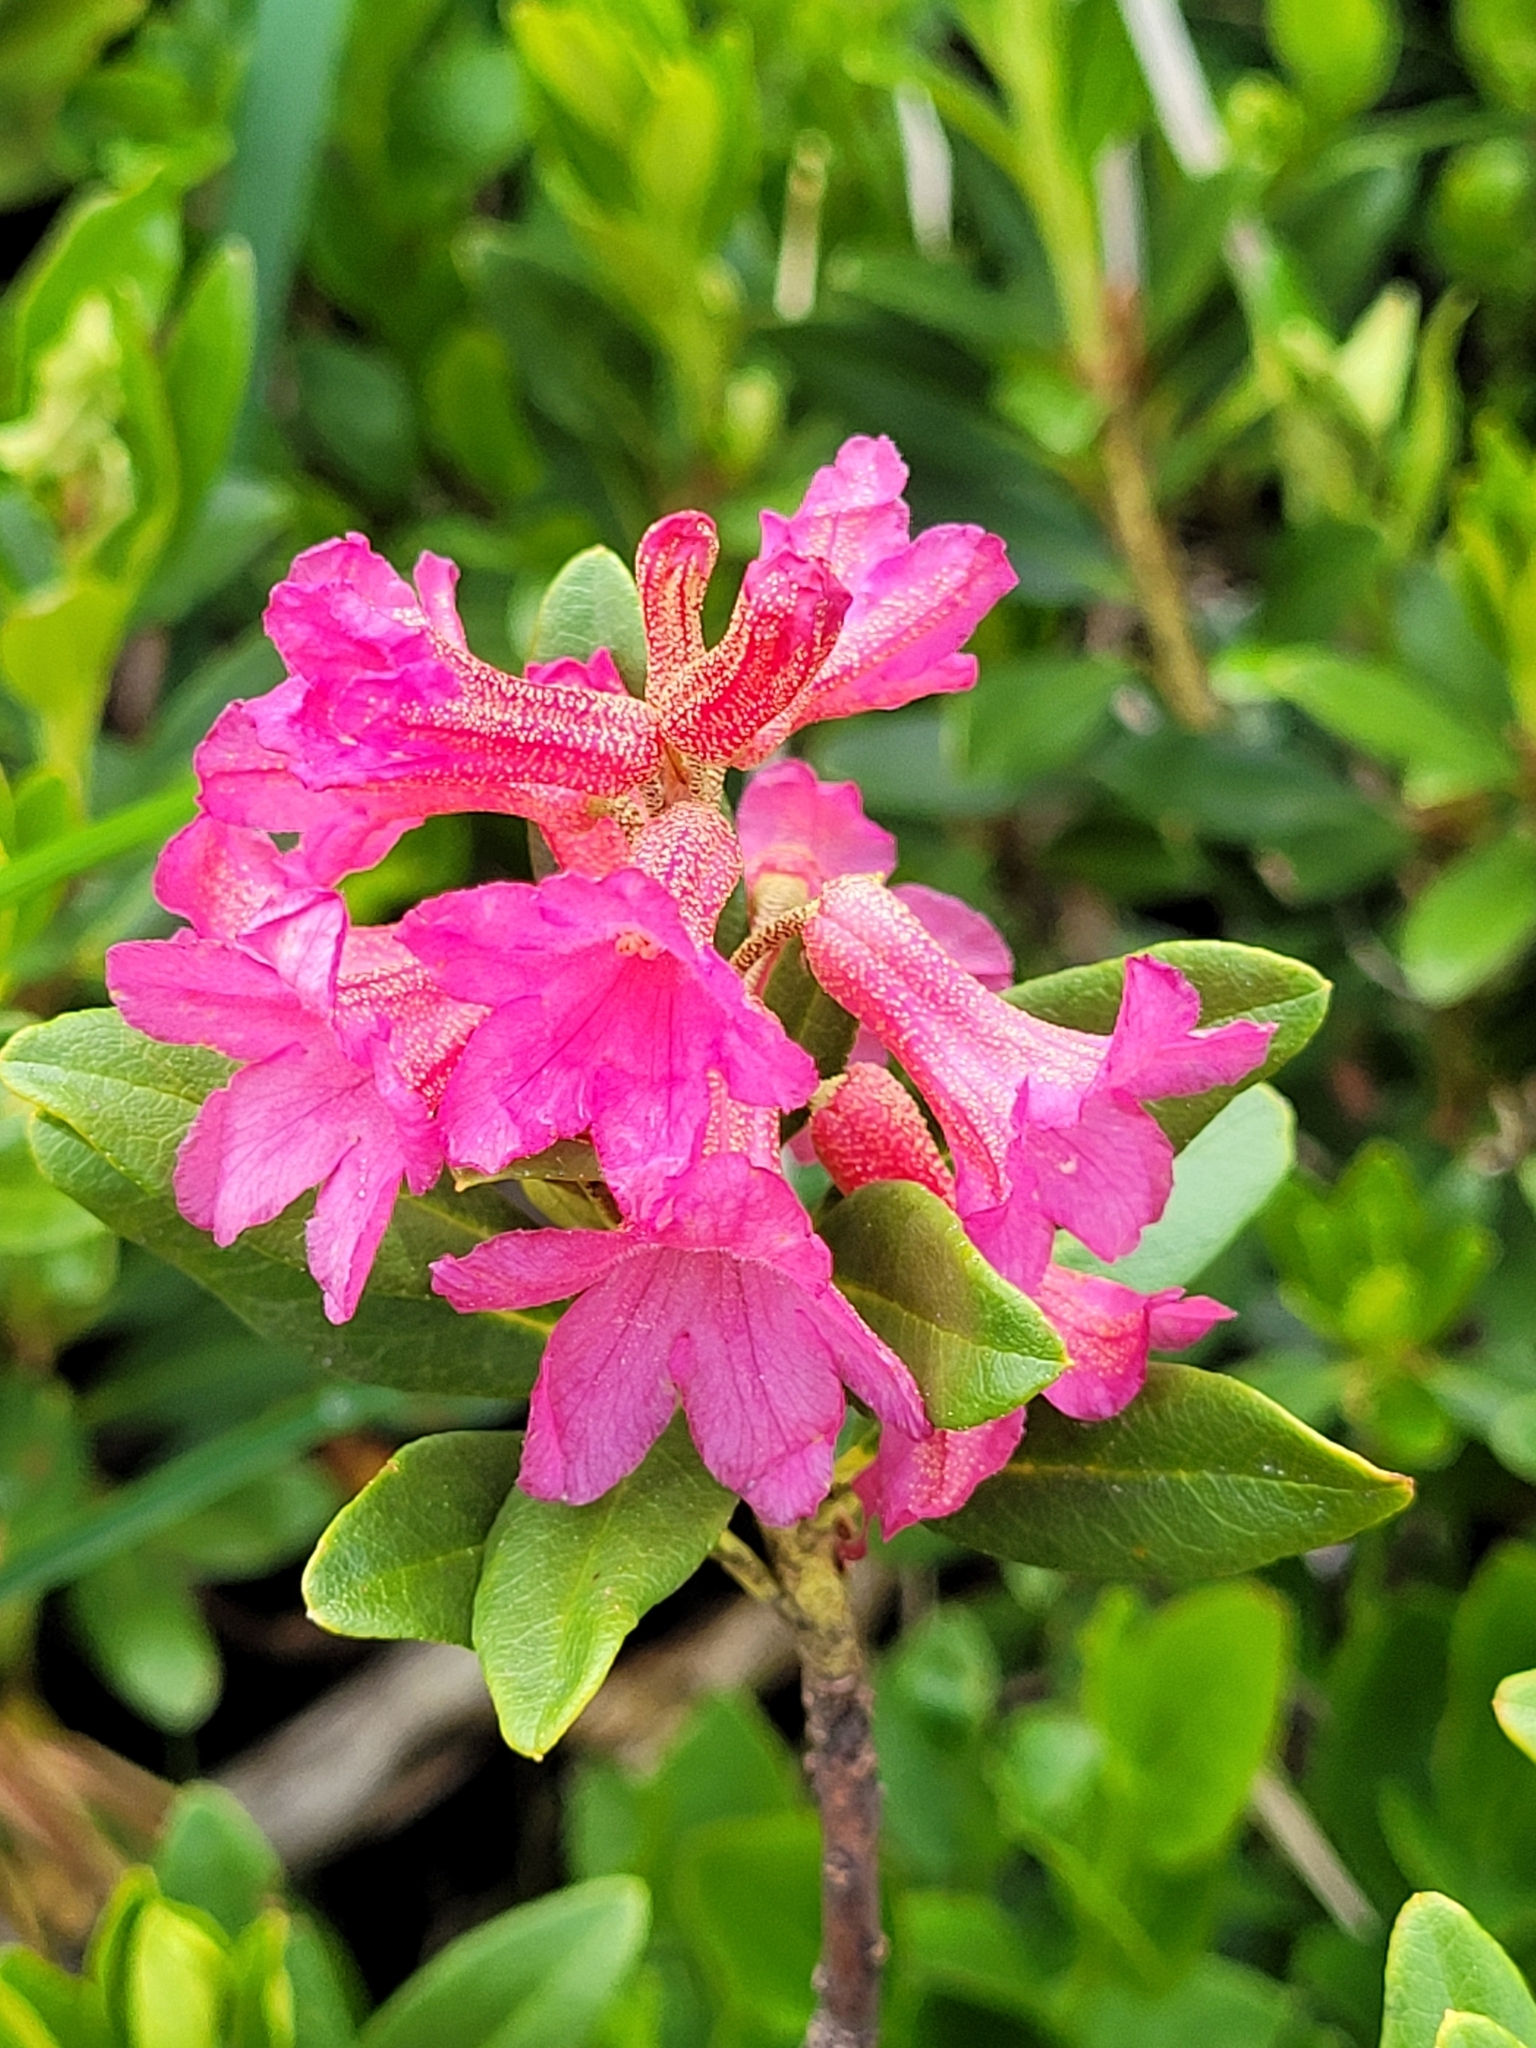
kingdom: Plantae
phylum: Tracheophyta
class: Magnoliopsida
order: Ericales
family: Ericaceae
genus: Rhododendron
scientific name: Rhododendron ferrugineum
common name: Alpenrose
